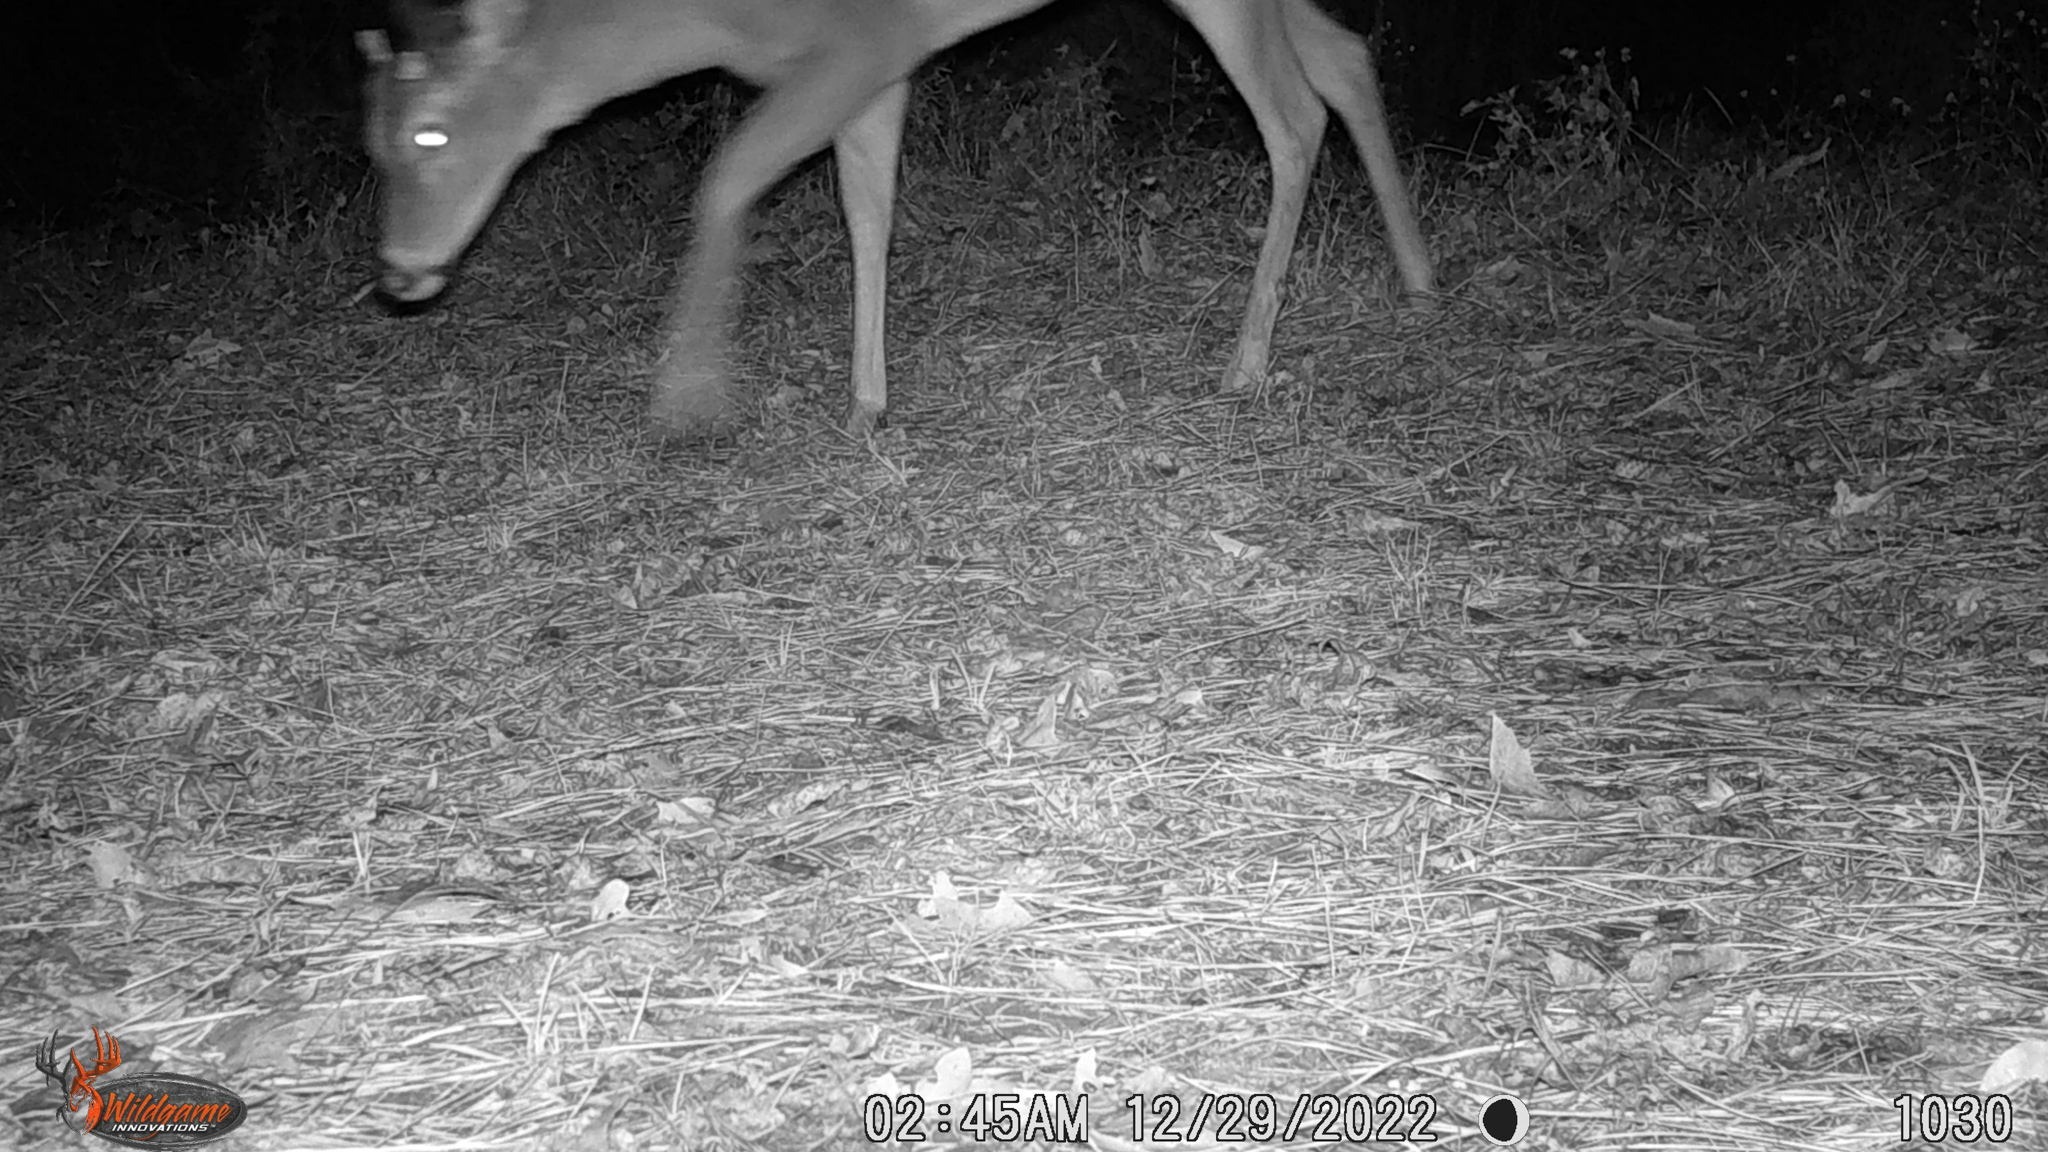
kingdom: Animalia
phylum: Chordata
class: Mammalia
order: Artiodactyla
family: Cervidae
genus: Odocoileus
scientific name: Odocoileus virginianus
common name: White-tailed deer
